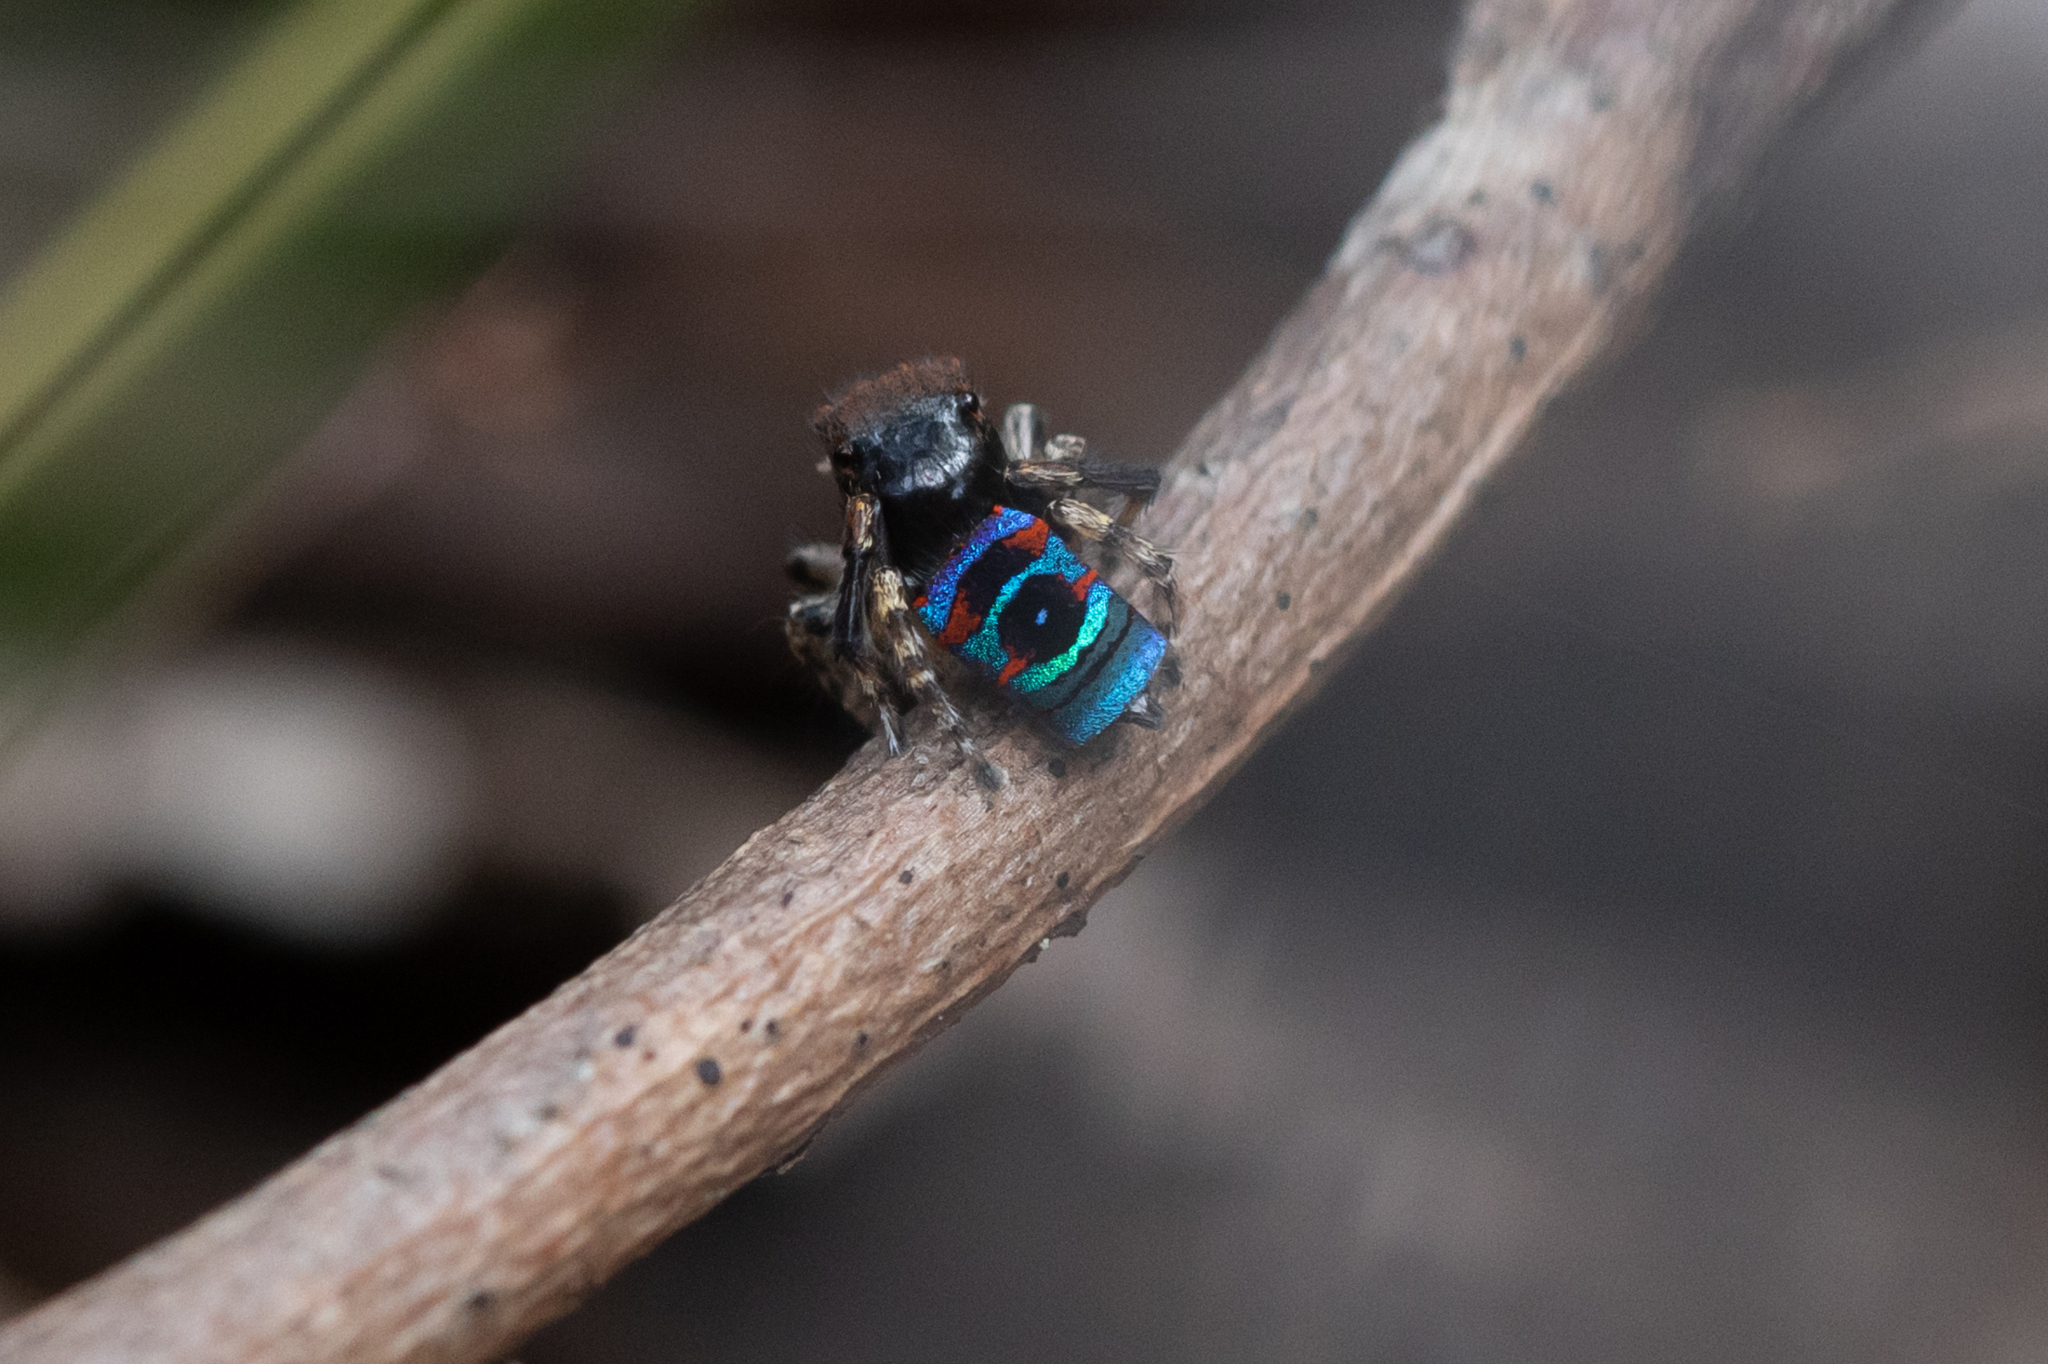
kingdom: Animalia
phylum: Arthropoda
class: Arachnida
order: Araneae
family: Salticidae
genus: Maratus
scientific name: Maratus karrie
